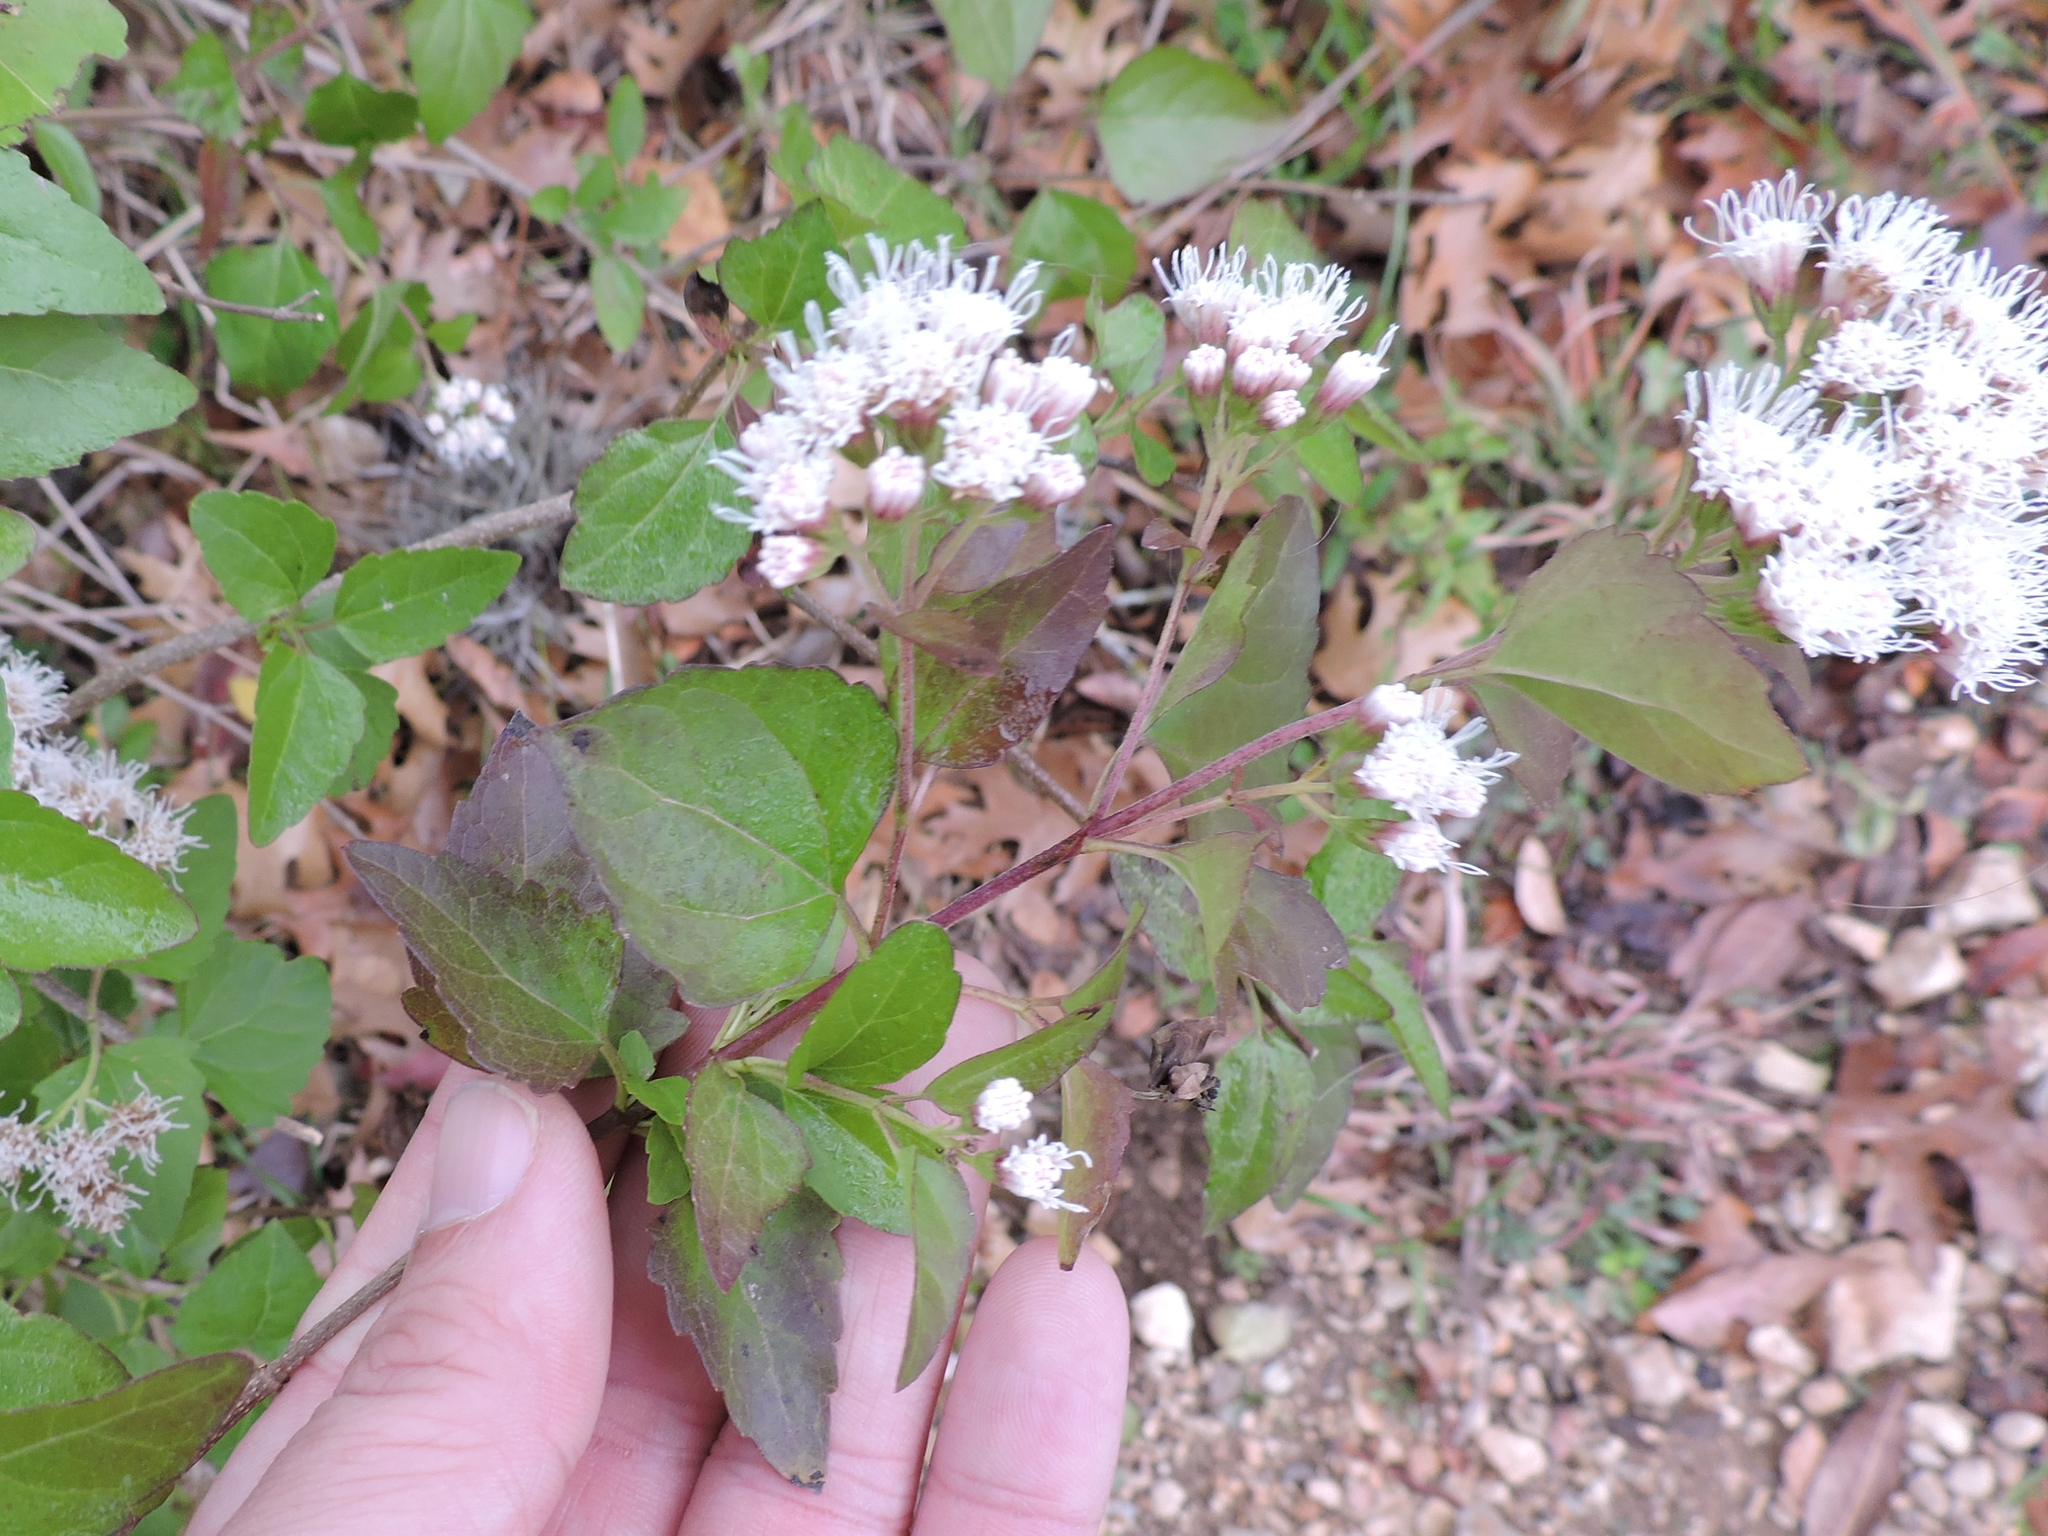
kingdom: Plantae
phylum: Tracheophyta
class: Magnoliopsida
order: Asterales
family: Asteraceae
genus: Ageratina
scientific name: Ageratina havanensis
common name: Havana snakeroot
